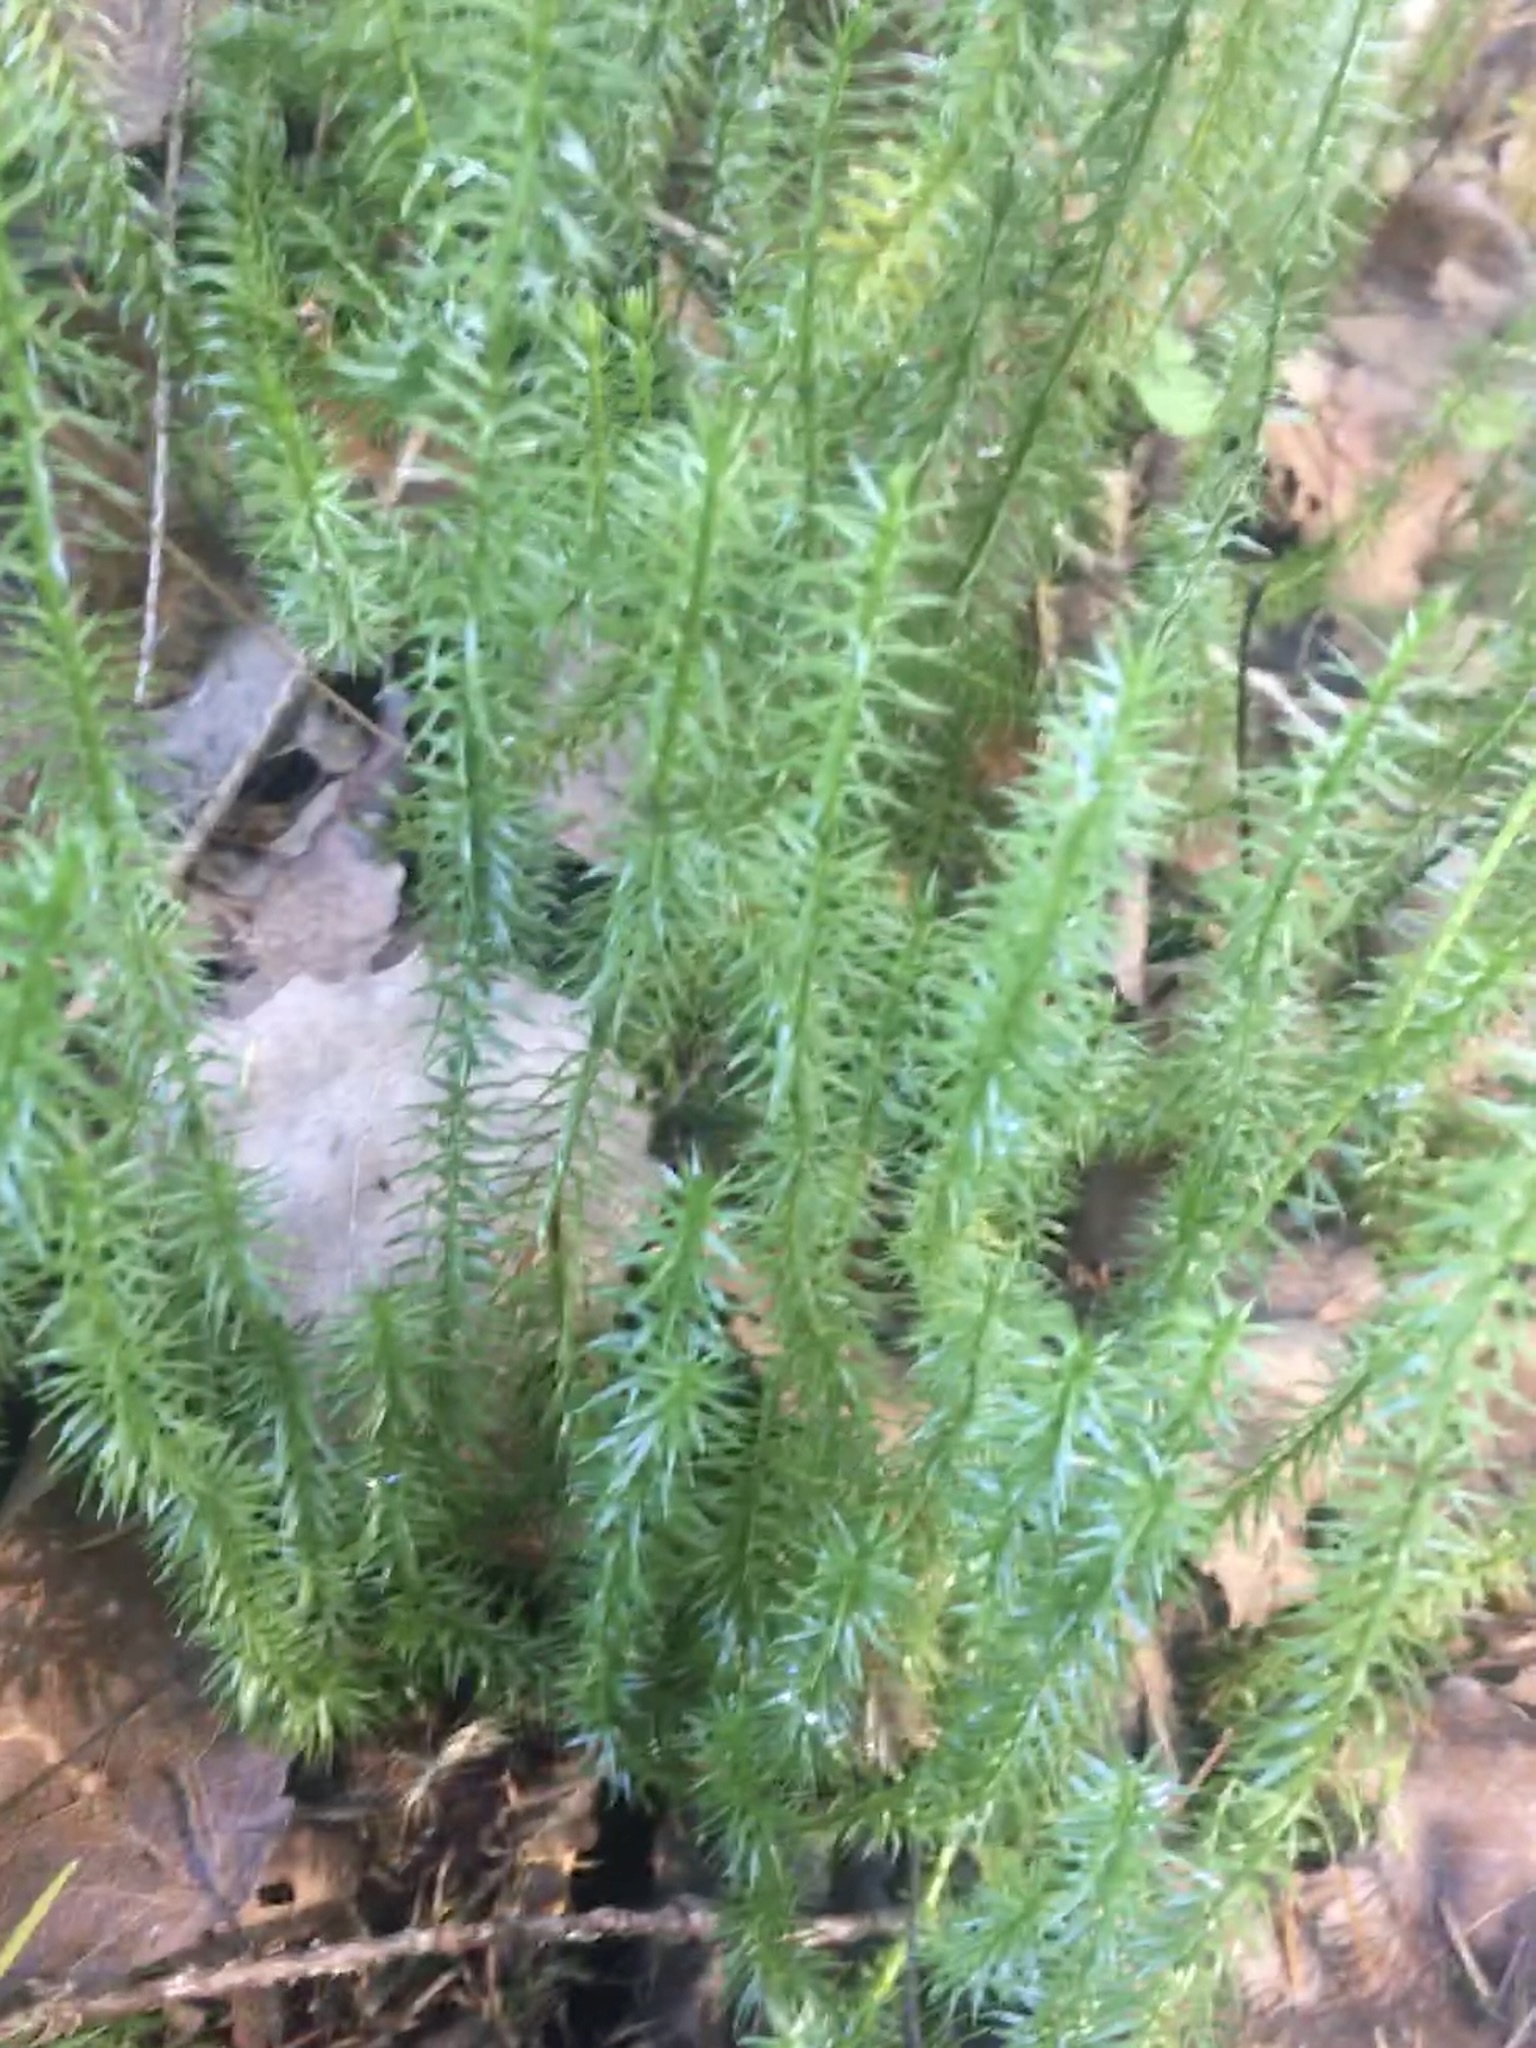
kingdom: Plantae
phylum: Tracheophyta
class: Lycopodiopsida
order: Lycopodiales
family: Lycopodiaceae
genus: Spinulum
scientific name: Spinulum annotinum
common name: Interrupted club-moss
